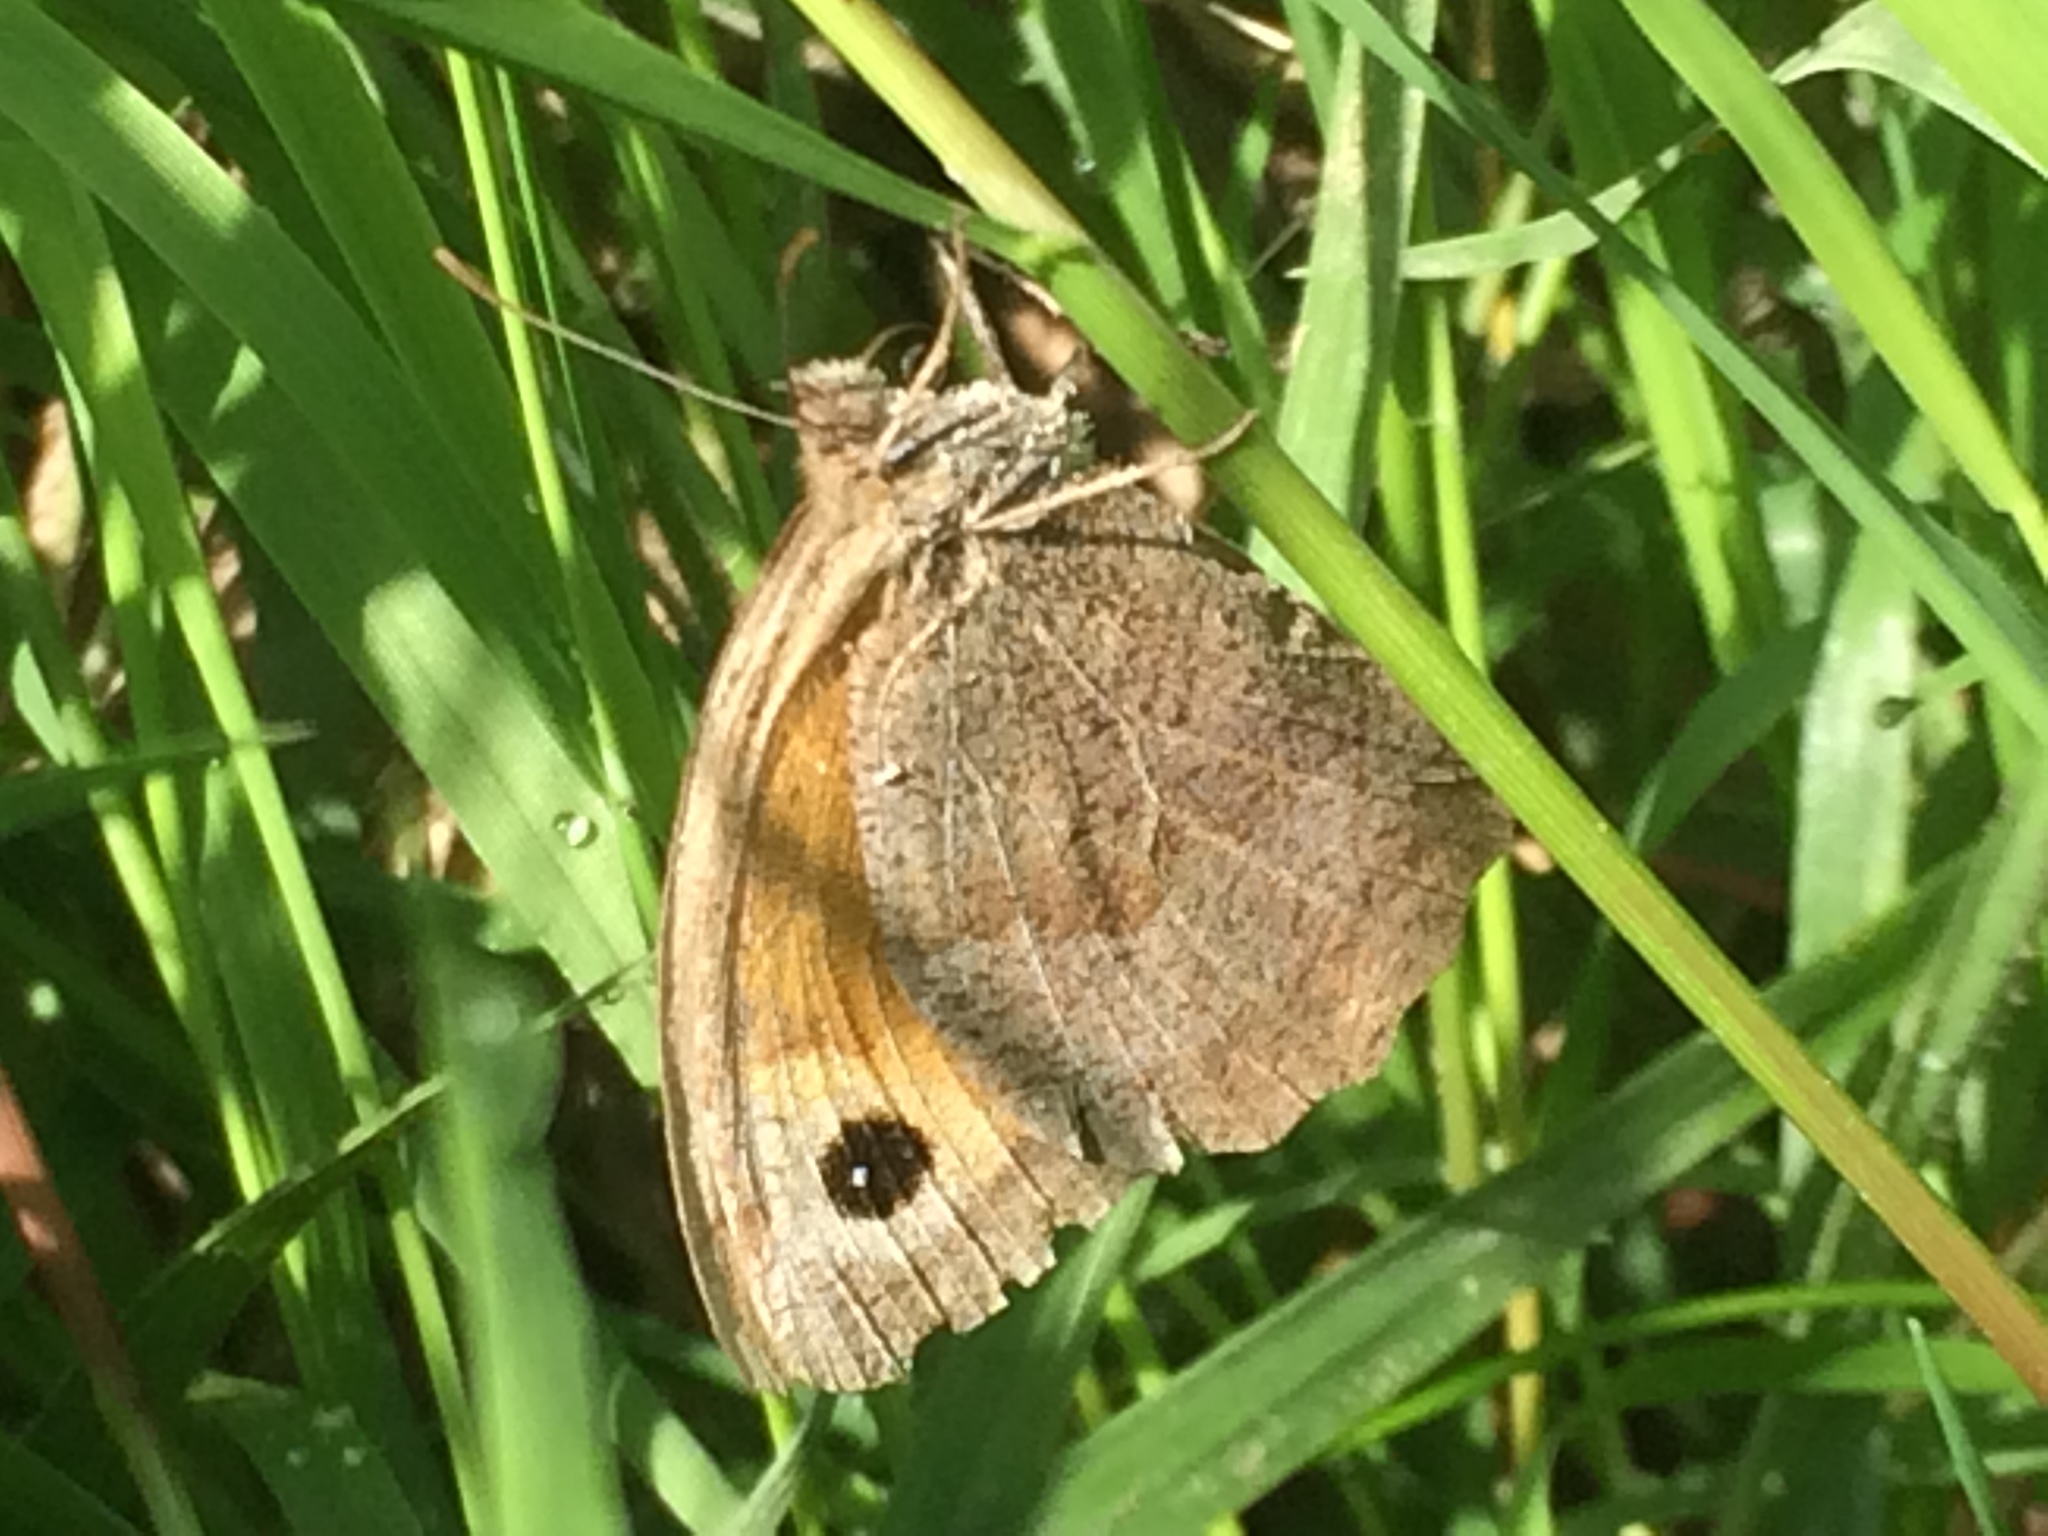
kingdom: Animalia
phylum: Arthropoda
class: Insecta
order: Lepidoptera
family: Nymphalidae
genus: Maniola
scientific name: Maniola jurtina
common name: Meadow brown
